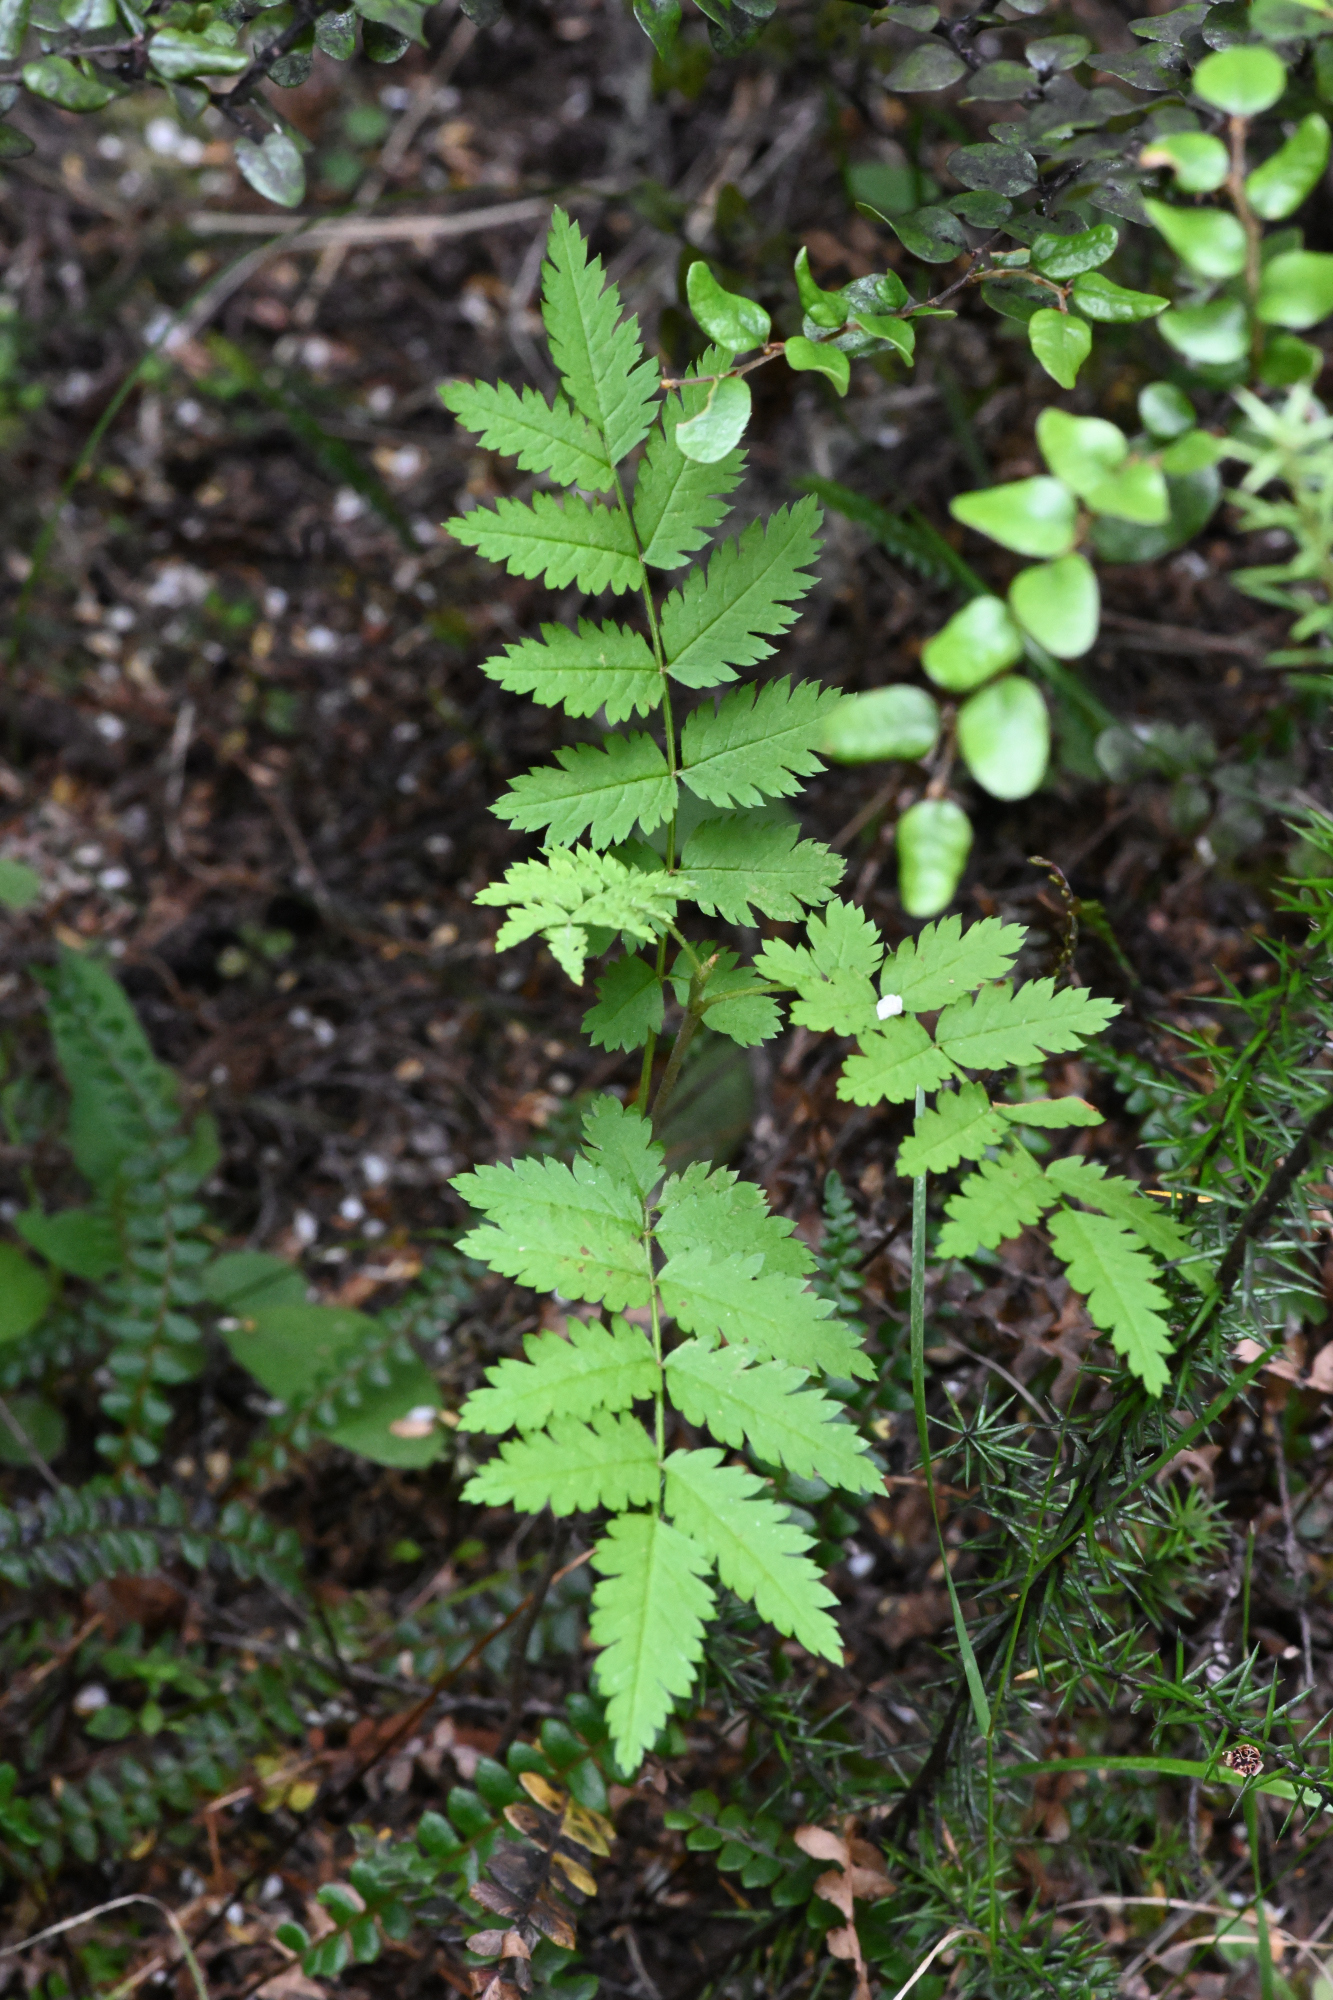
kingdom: Plantae
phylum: Tracheophyta
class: Magnoliopsida
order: Rosales
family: Rosaceae
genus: Sorbus
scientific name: Sorbus aucuparia
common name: Rowan
